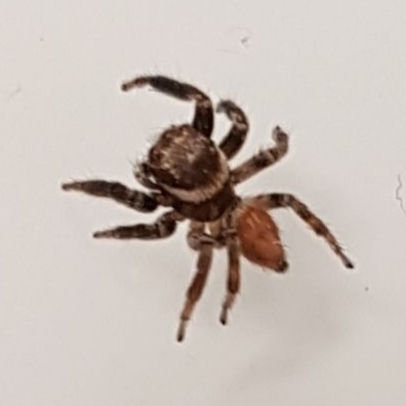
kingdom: Animalia
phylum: Arthropoda
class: Arachnida
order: Araneae
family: Salticidae
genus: Evarcha
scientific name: Evarcha jucunda
